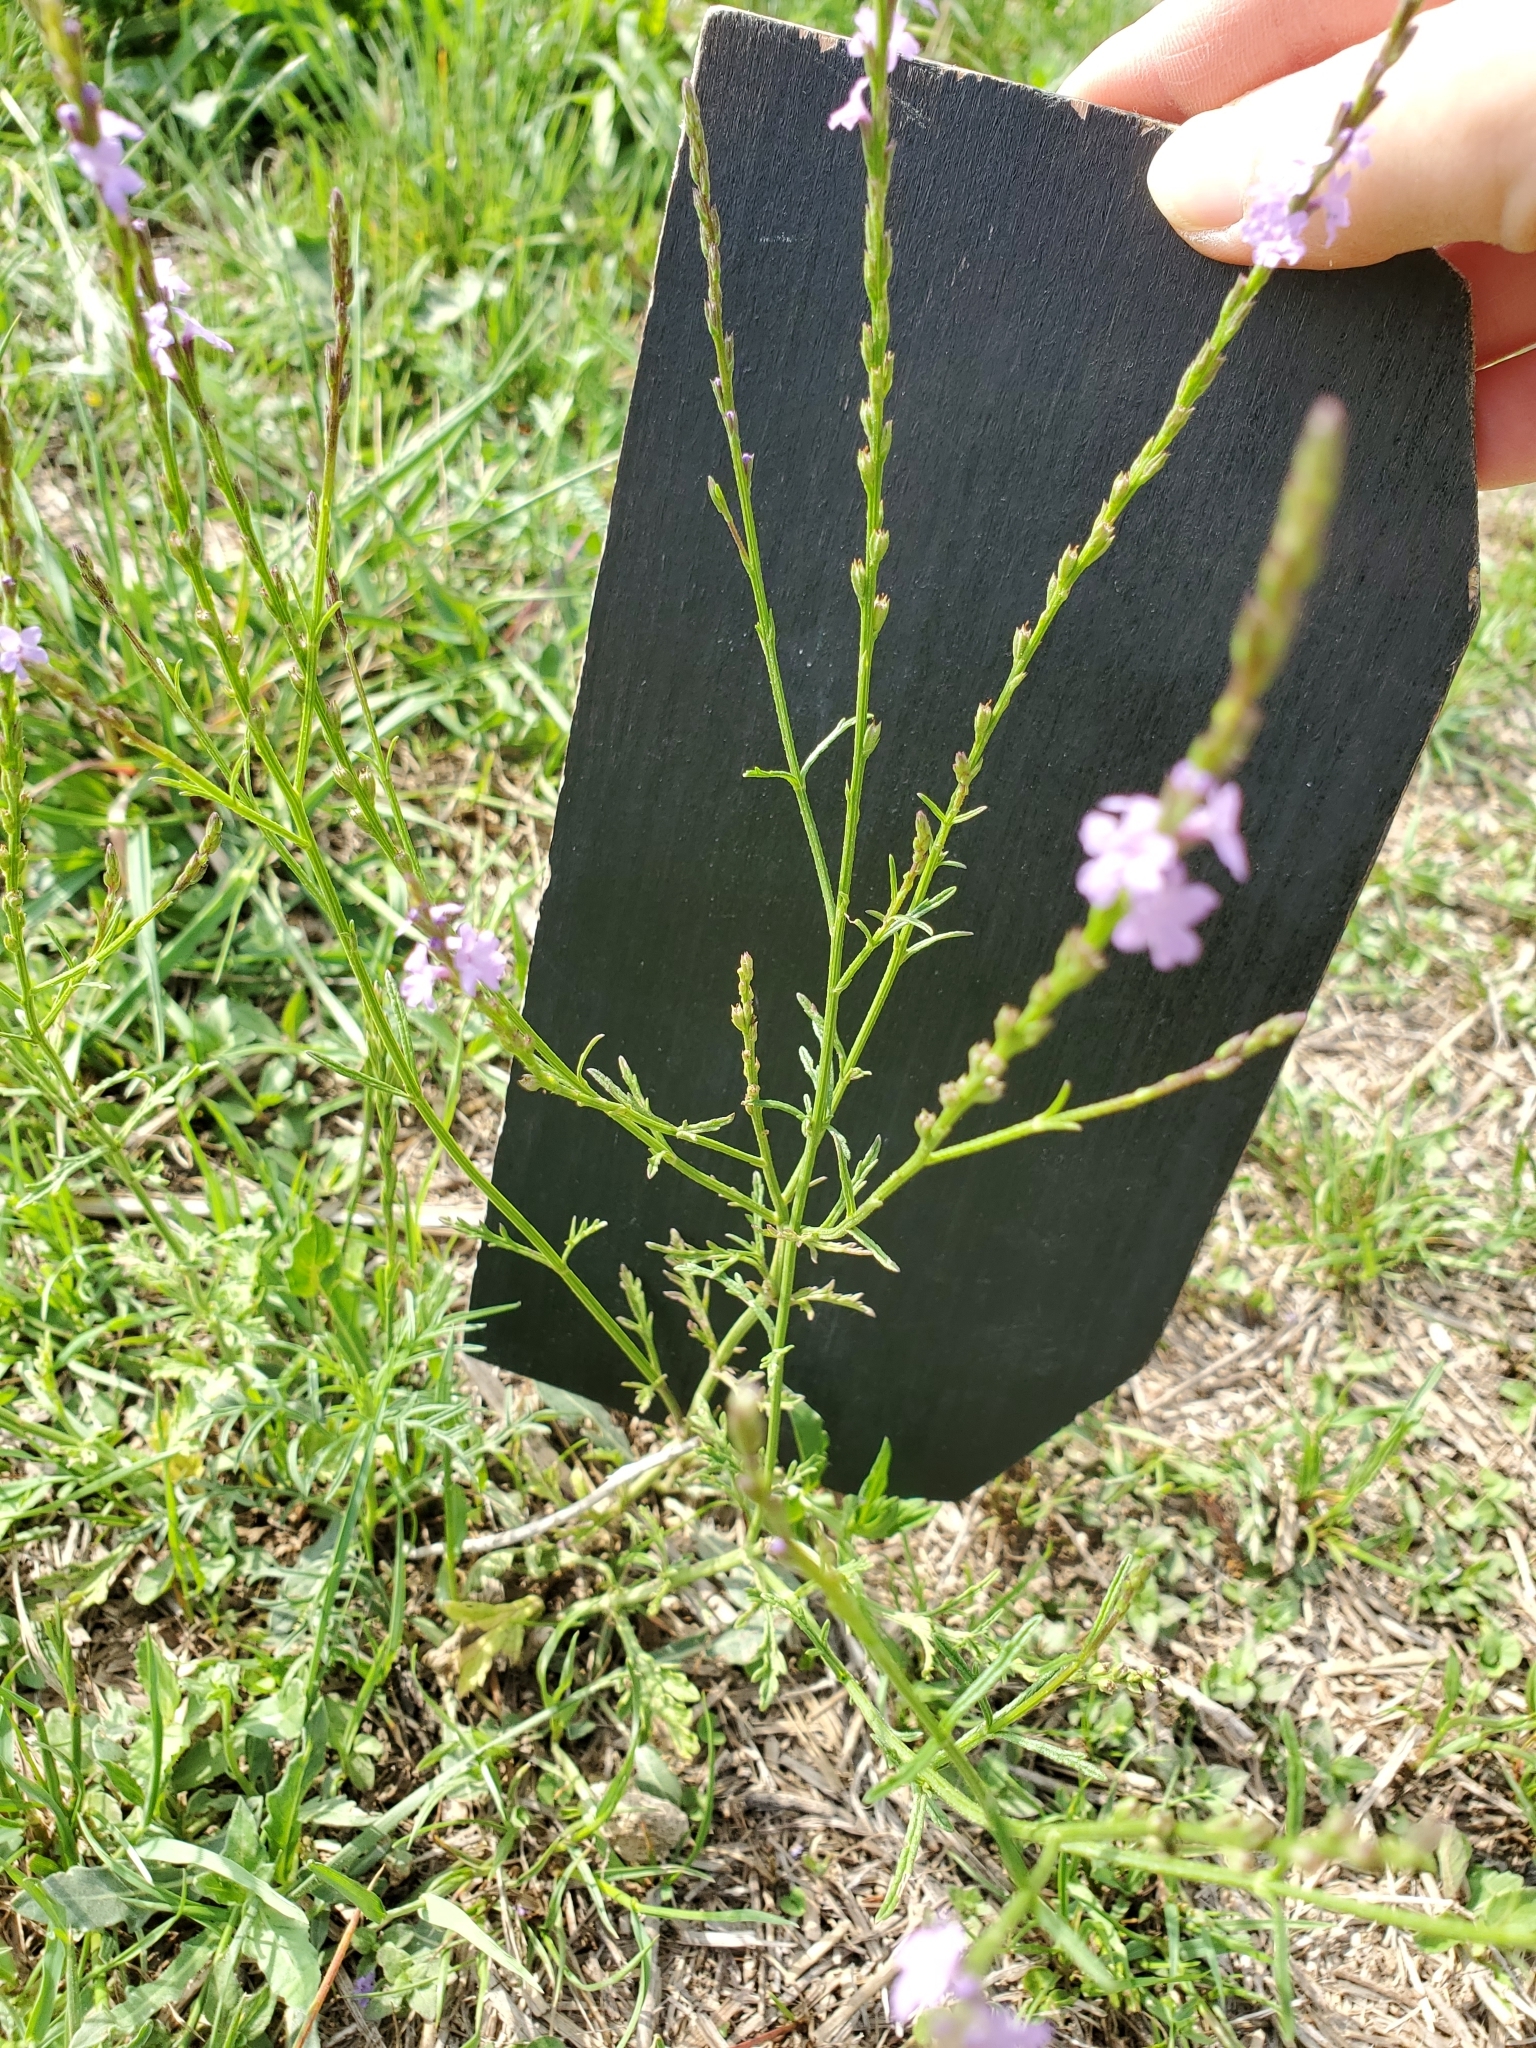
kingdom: Plantae
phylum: Tracheophyta
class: Magnoliopsida
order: Lamiales
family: Verbenaceae
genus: Verbena
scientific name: Verbena halei
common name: Texas vervain
